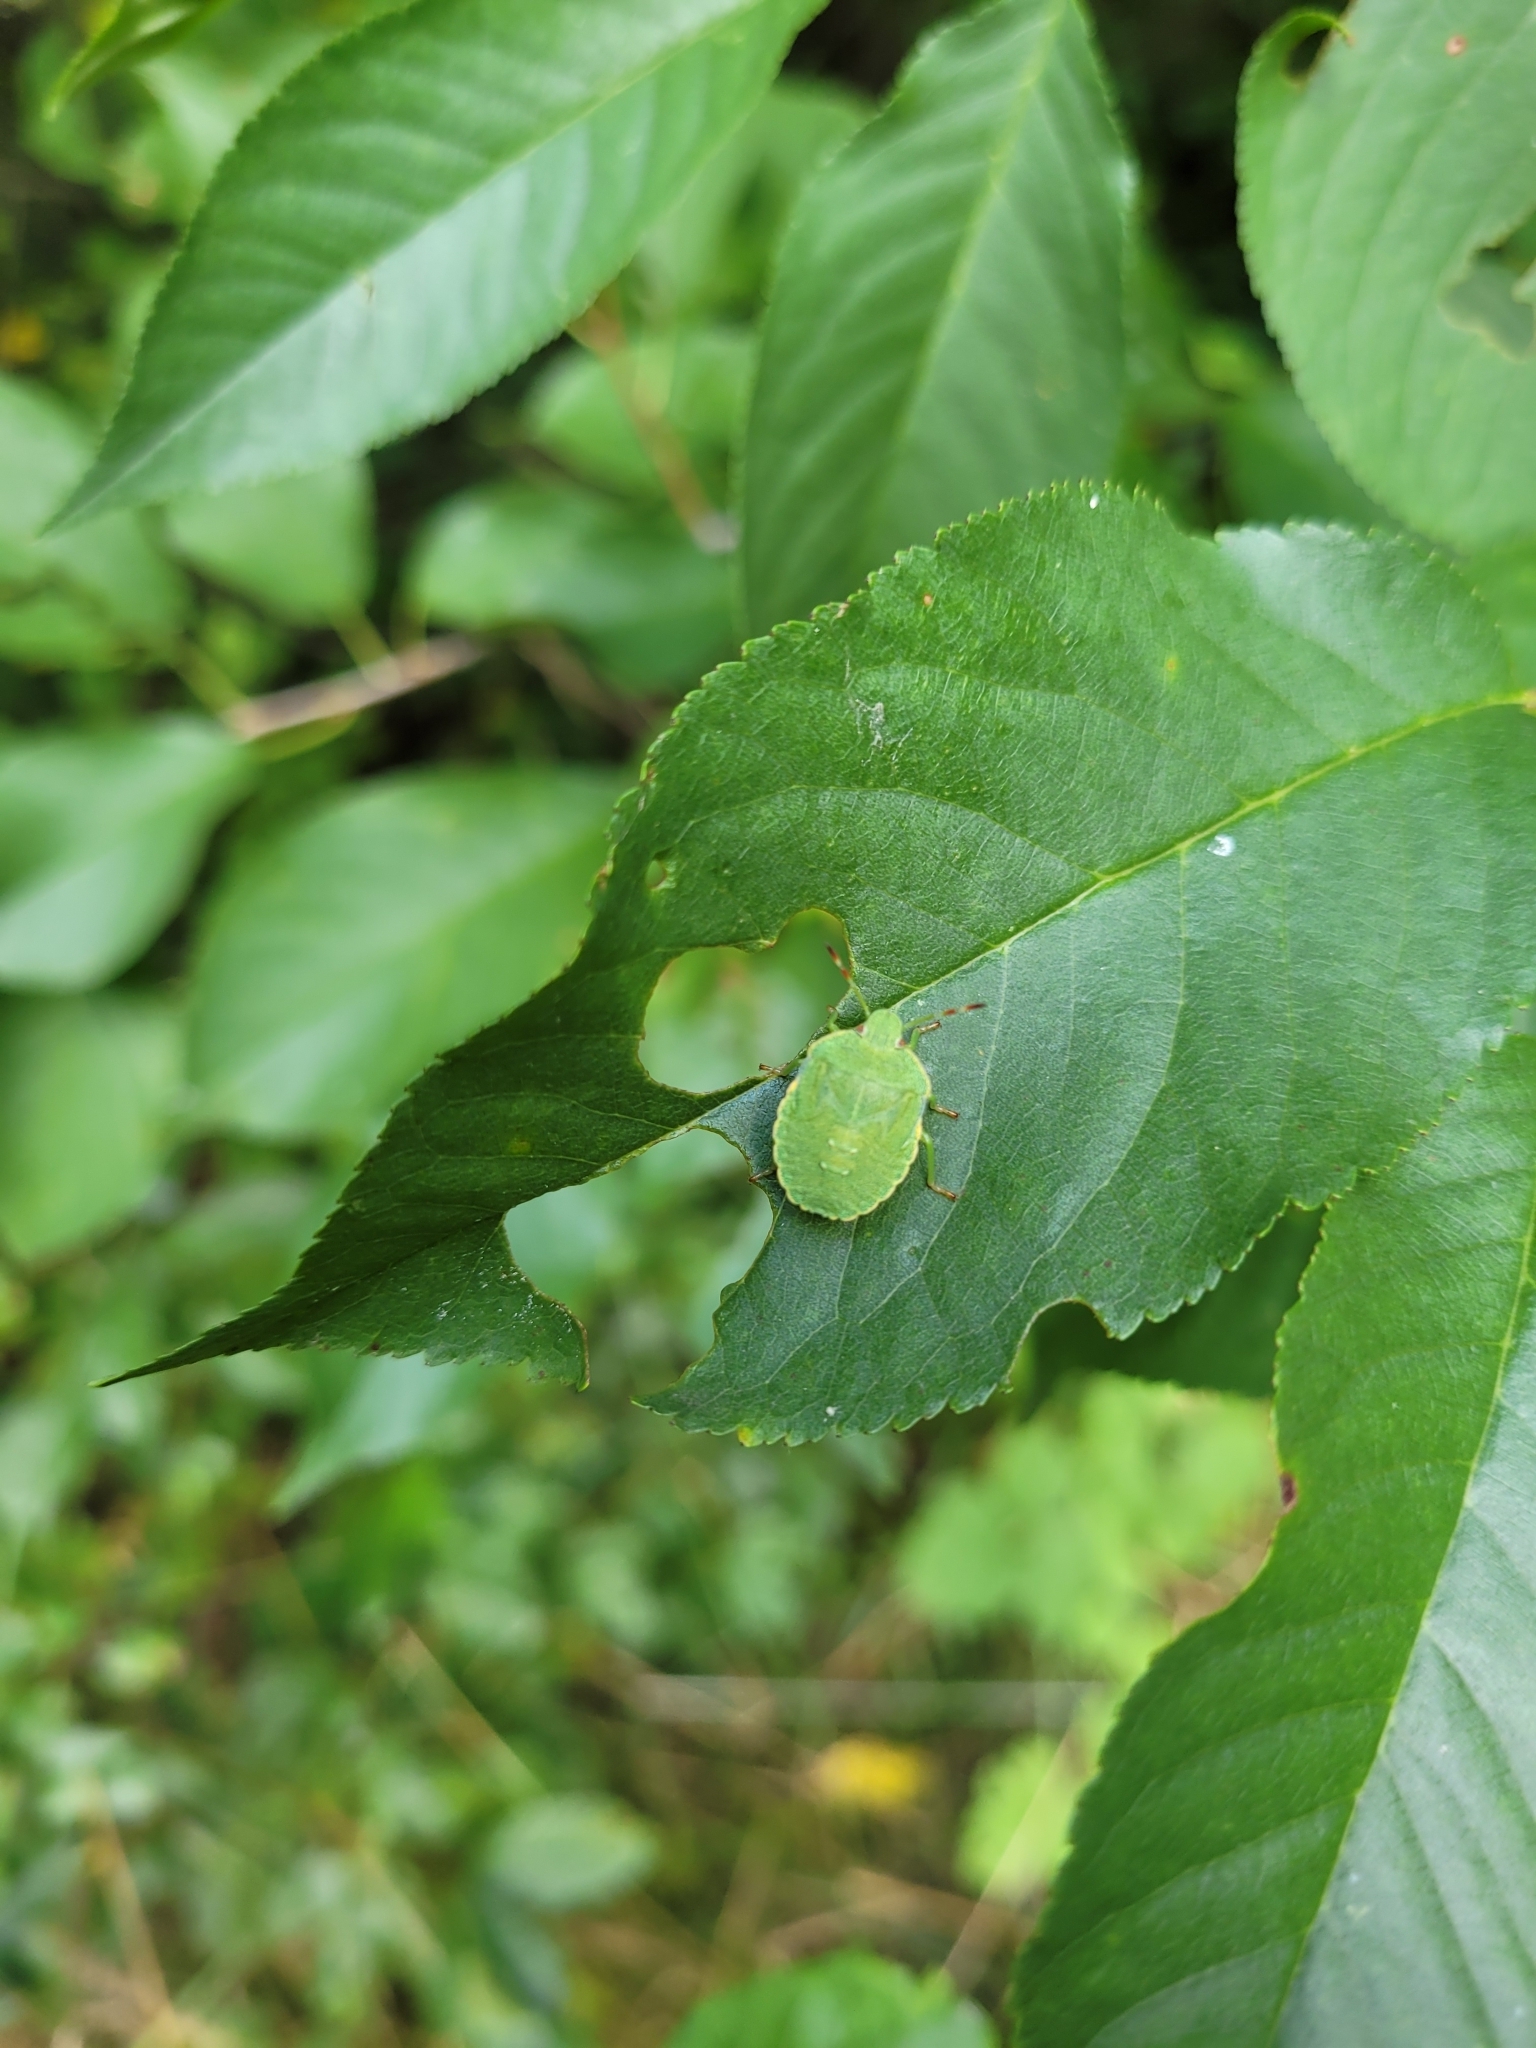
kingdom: Animalia
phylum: Arthropoda
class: Insecta
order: Hemiptera
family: Pentatomidae
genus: Palomena
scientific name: Palomena prasina
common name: Green shieldbug
